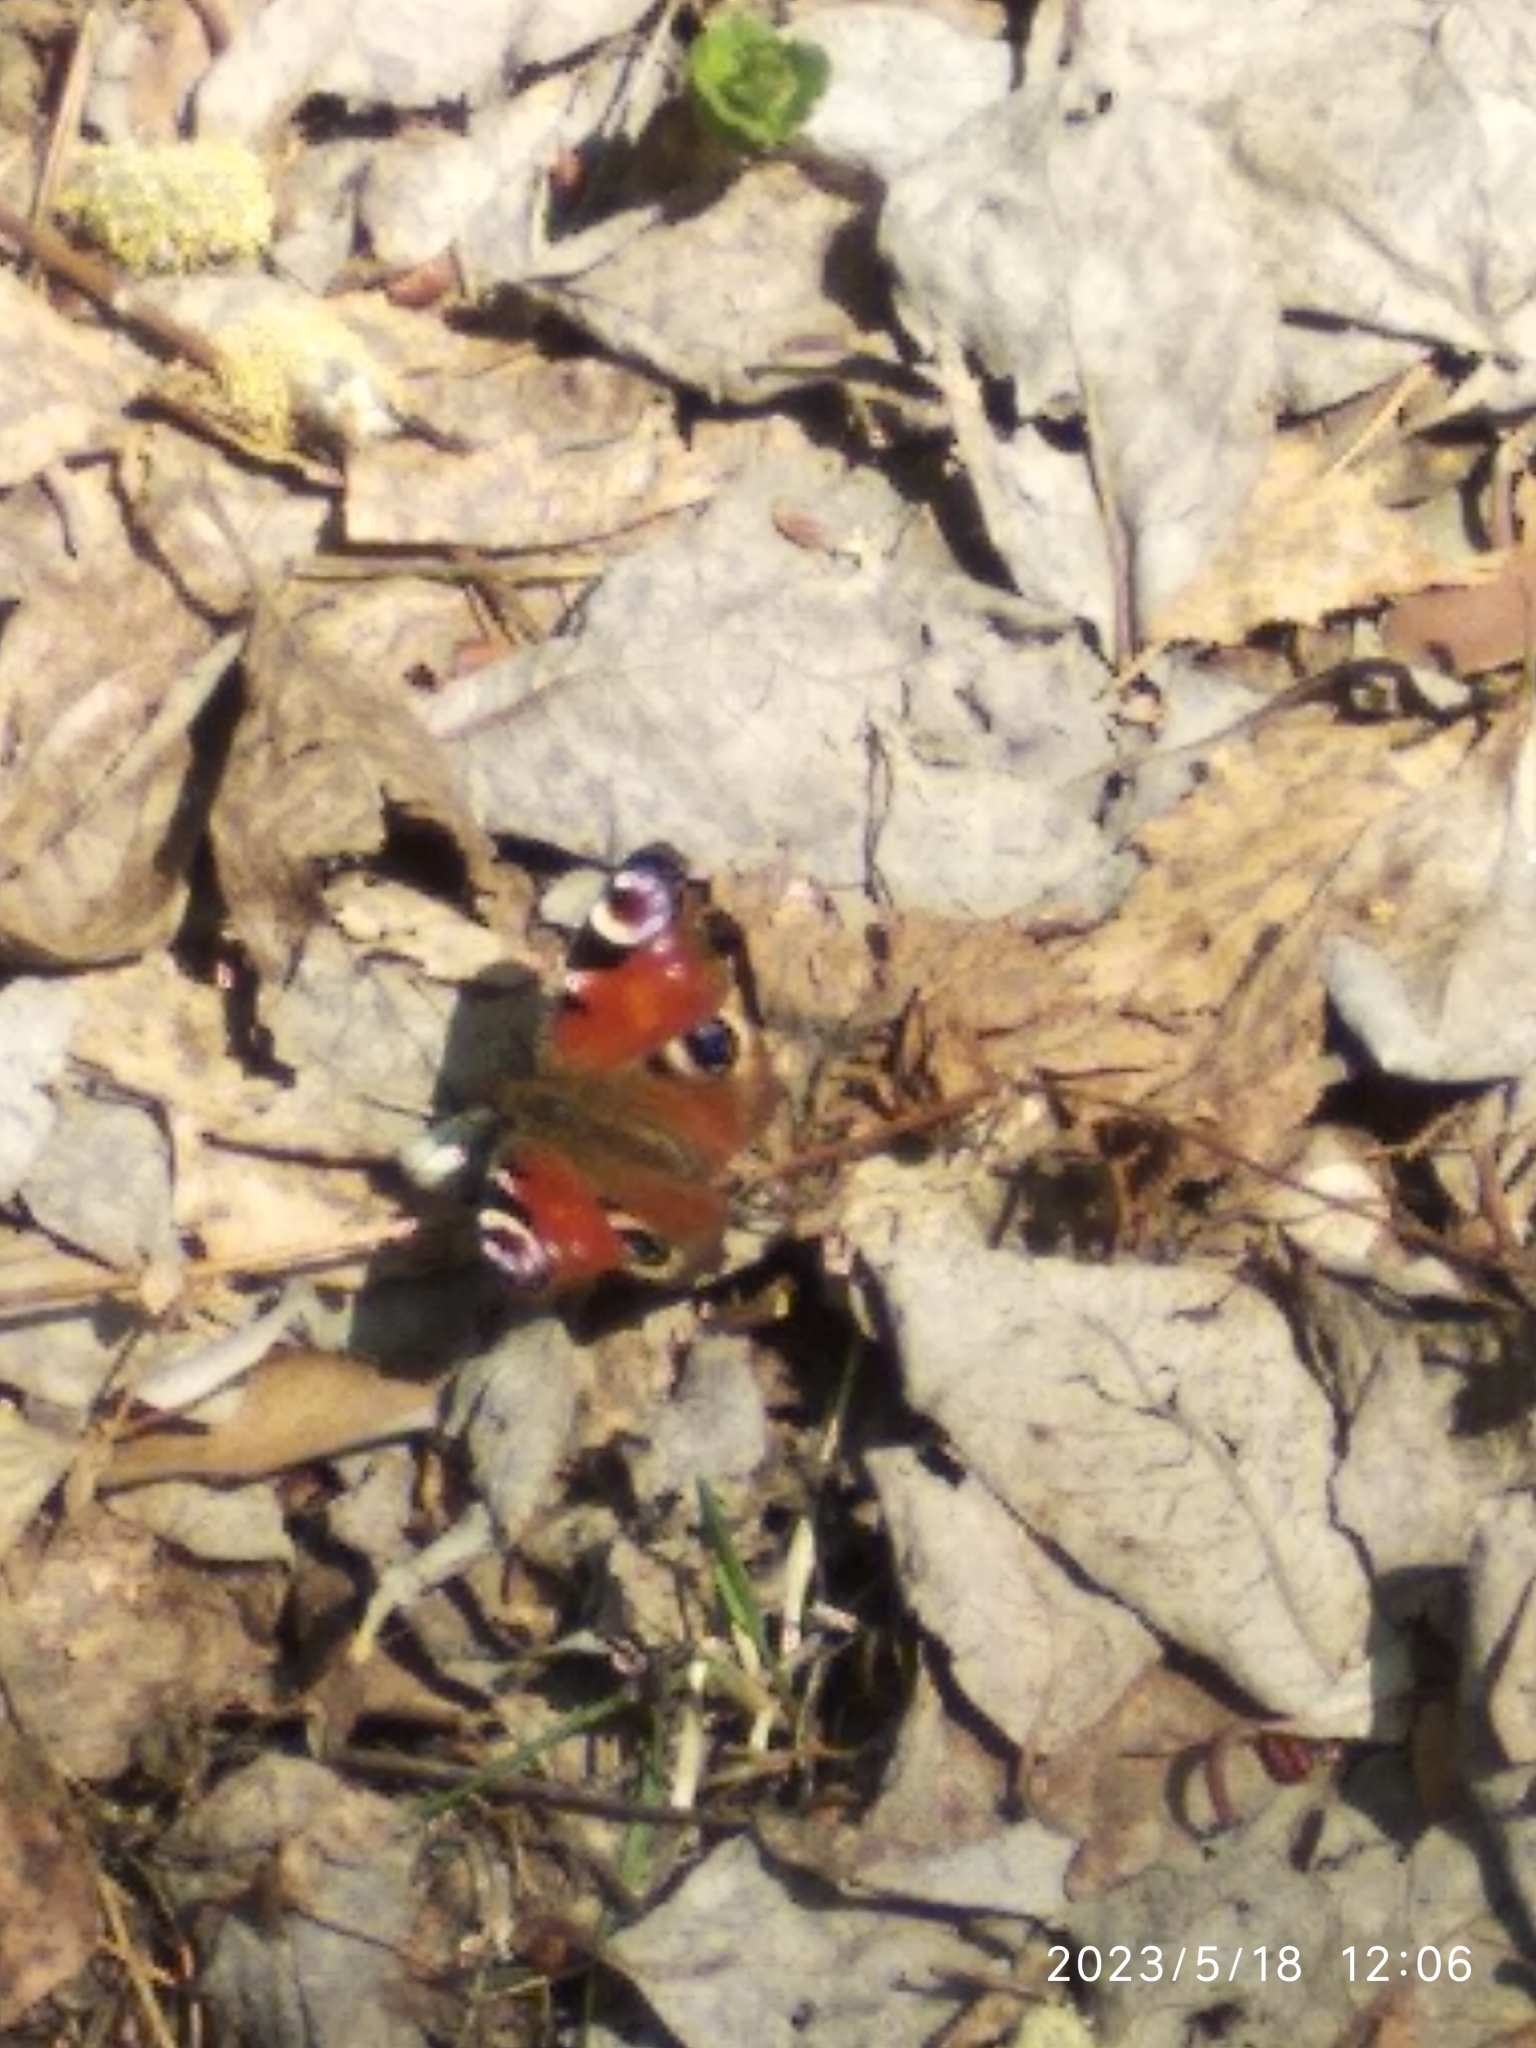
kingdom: Animalia
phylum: Arthropoda
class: Insecta
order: Lepidoptera
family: Nymphalidae
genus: Aglais
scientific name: Aglais io
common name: Peacock
